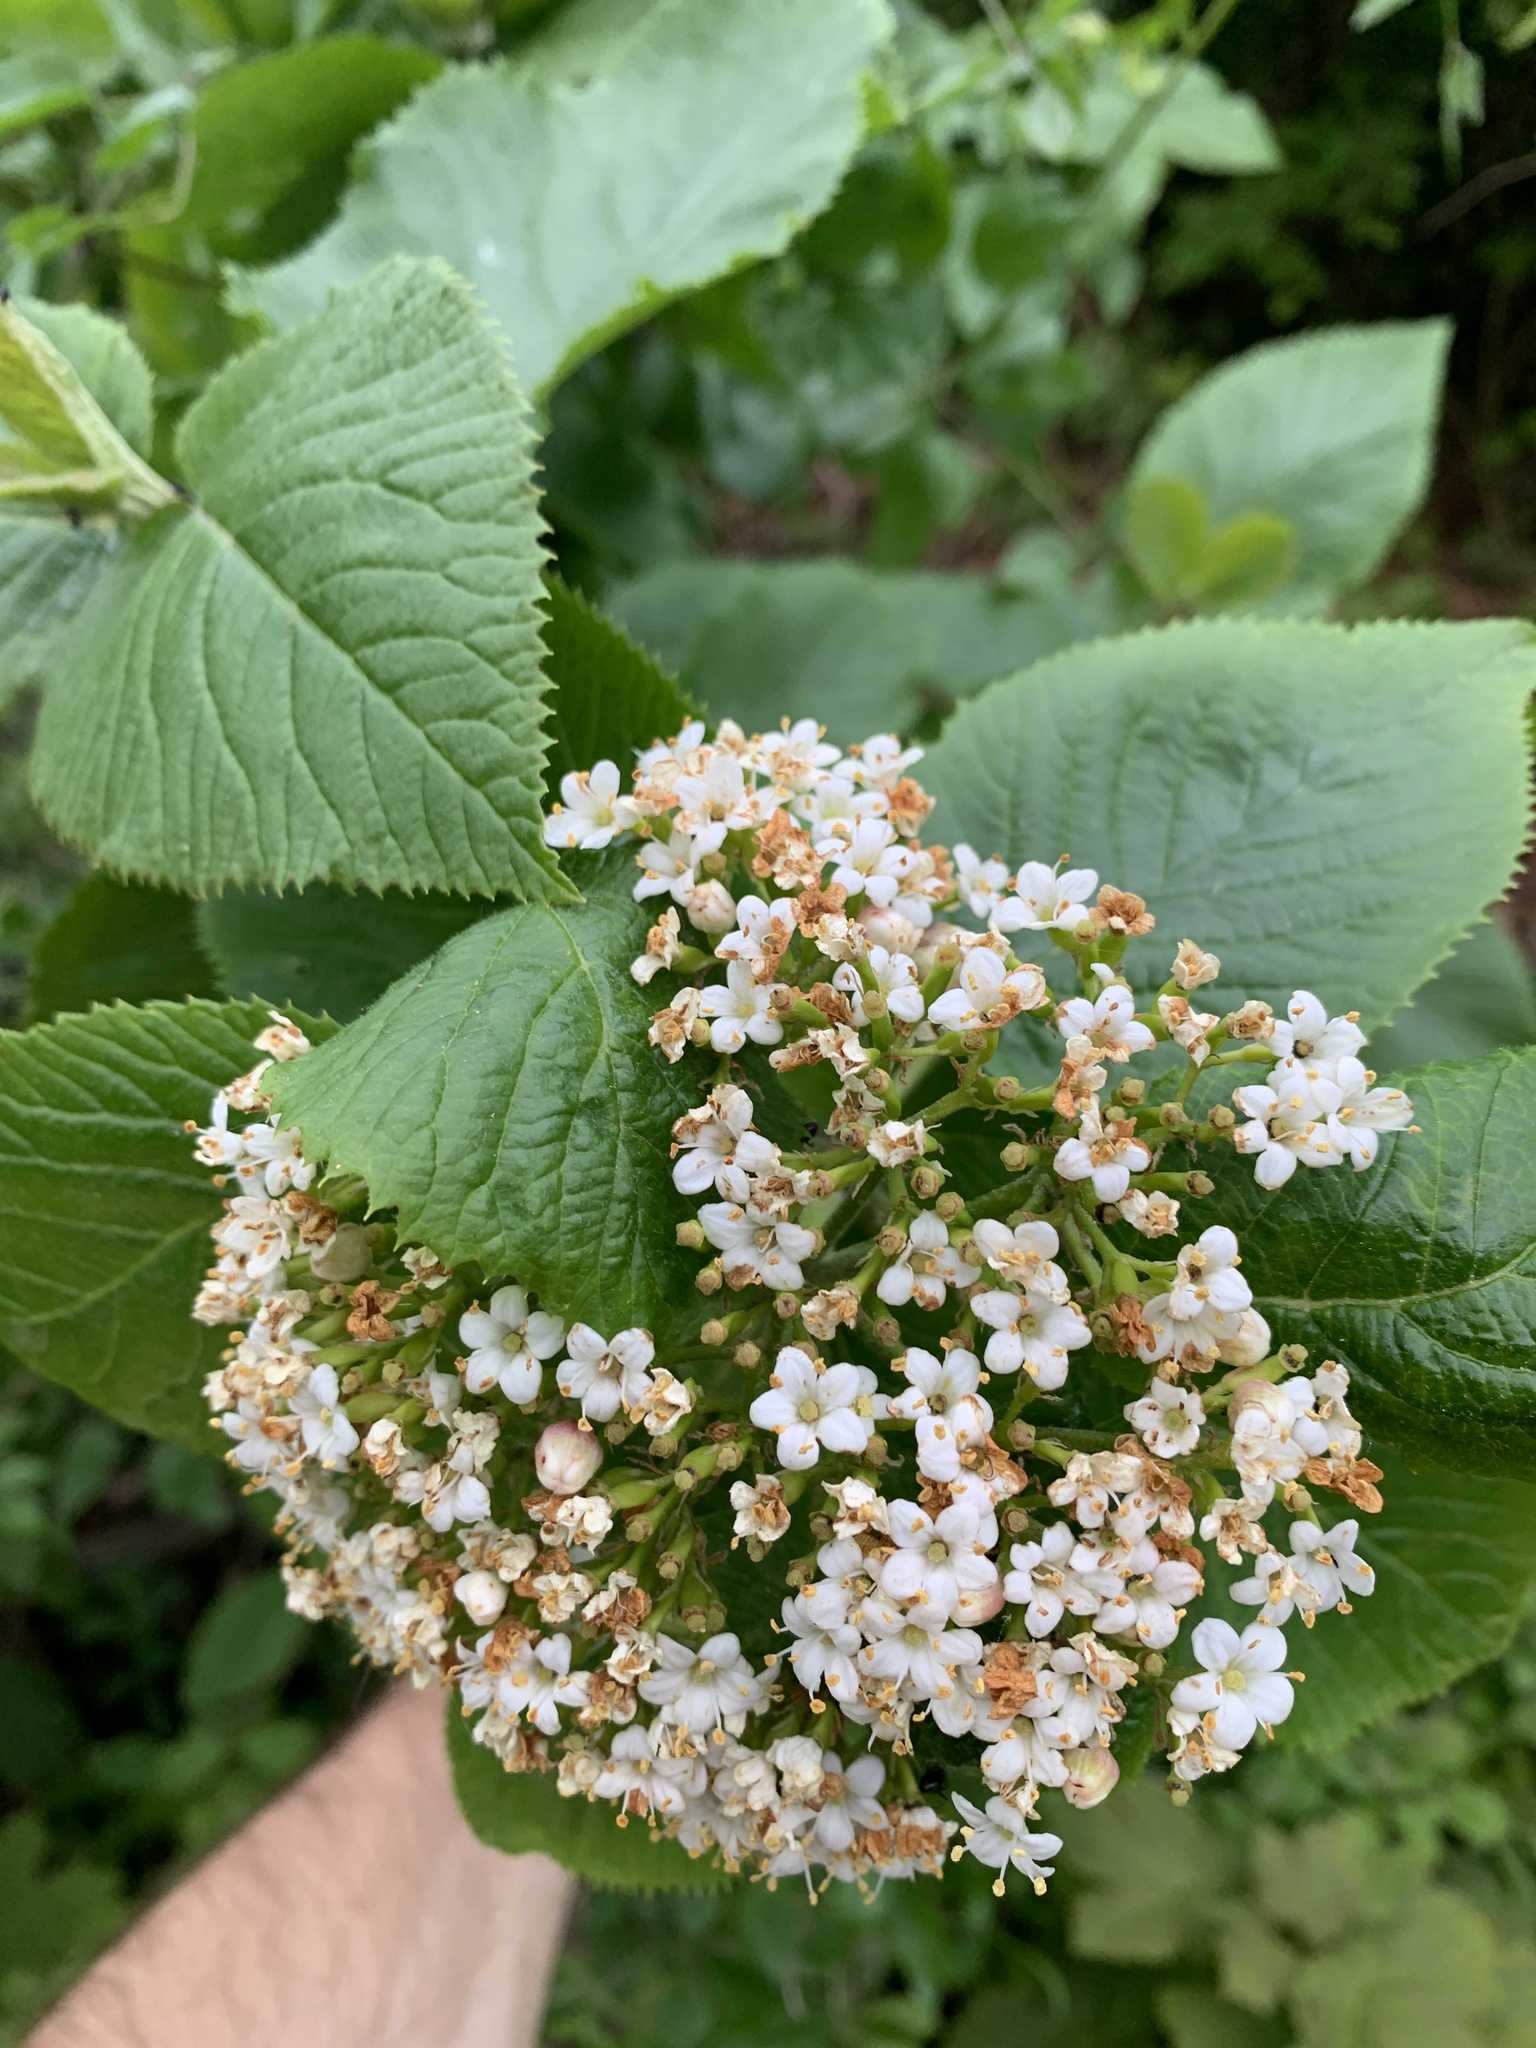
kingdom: Plantae
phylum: Tracheophyta
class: Magnoliopsida
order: Dipsacales
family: Viburnaceae
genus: Viburnum
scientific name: Viburnum lantana
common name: Wayfaring tree
